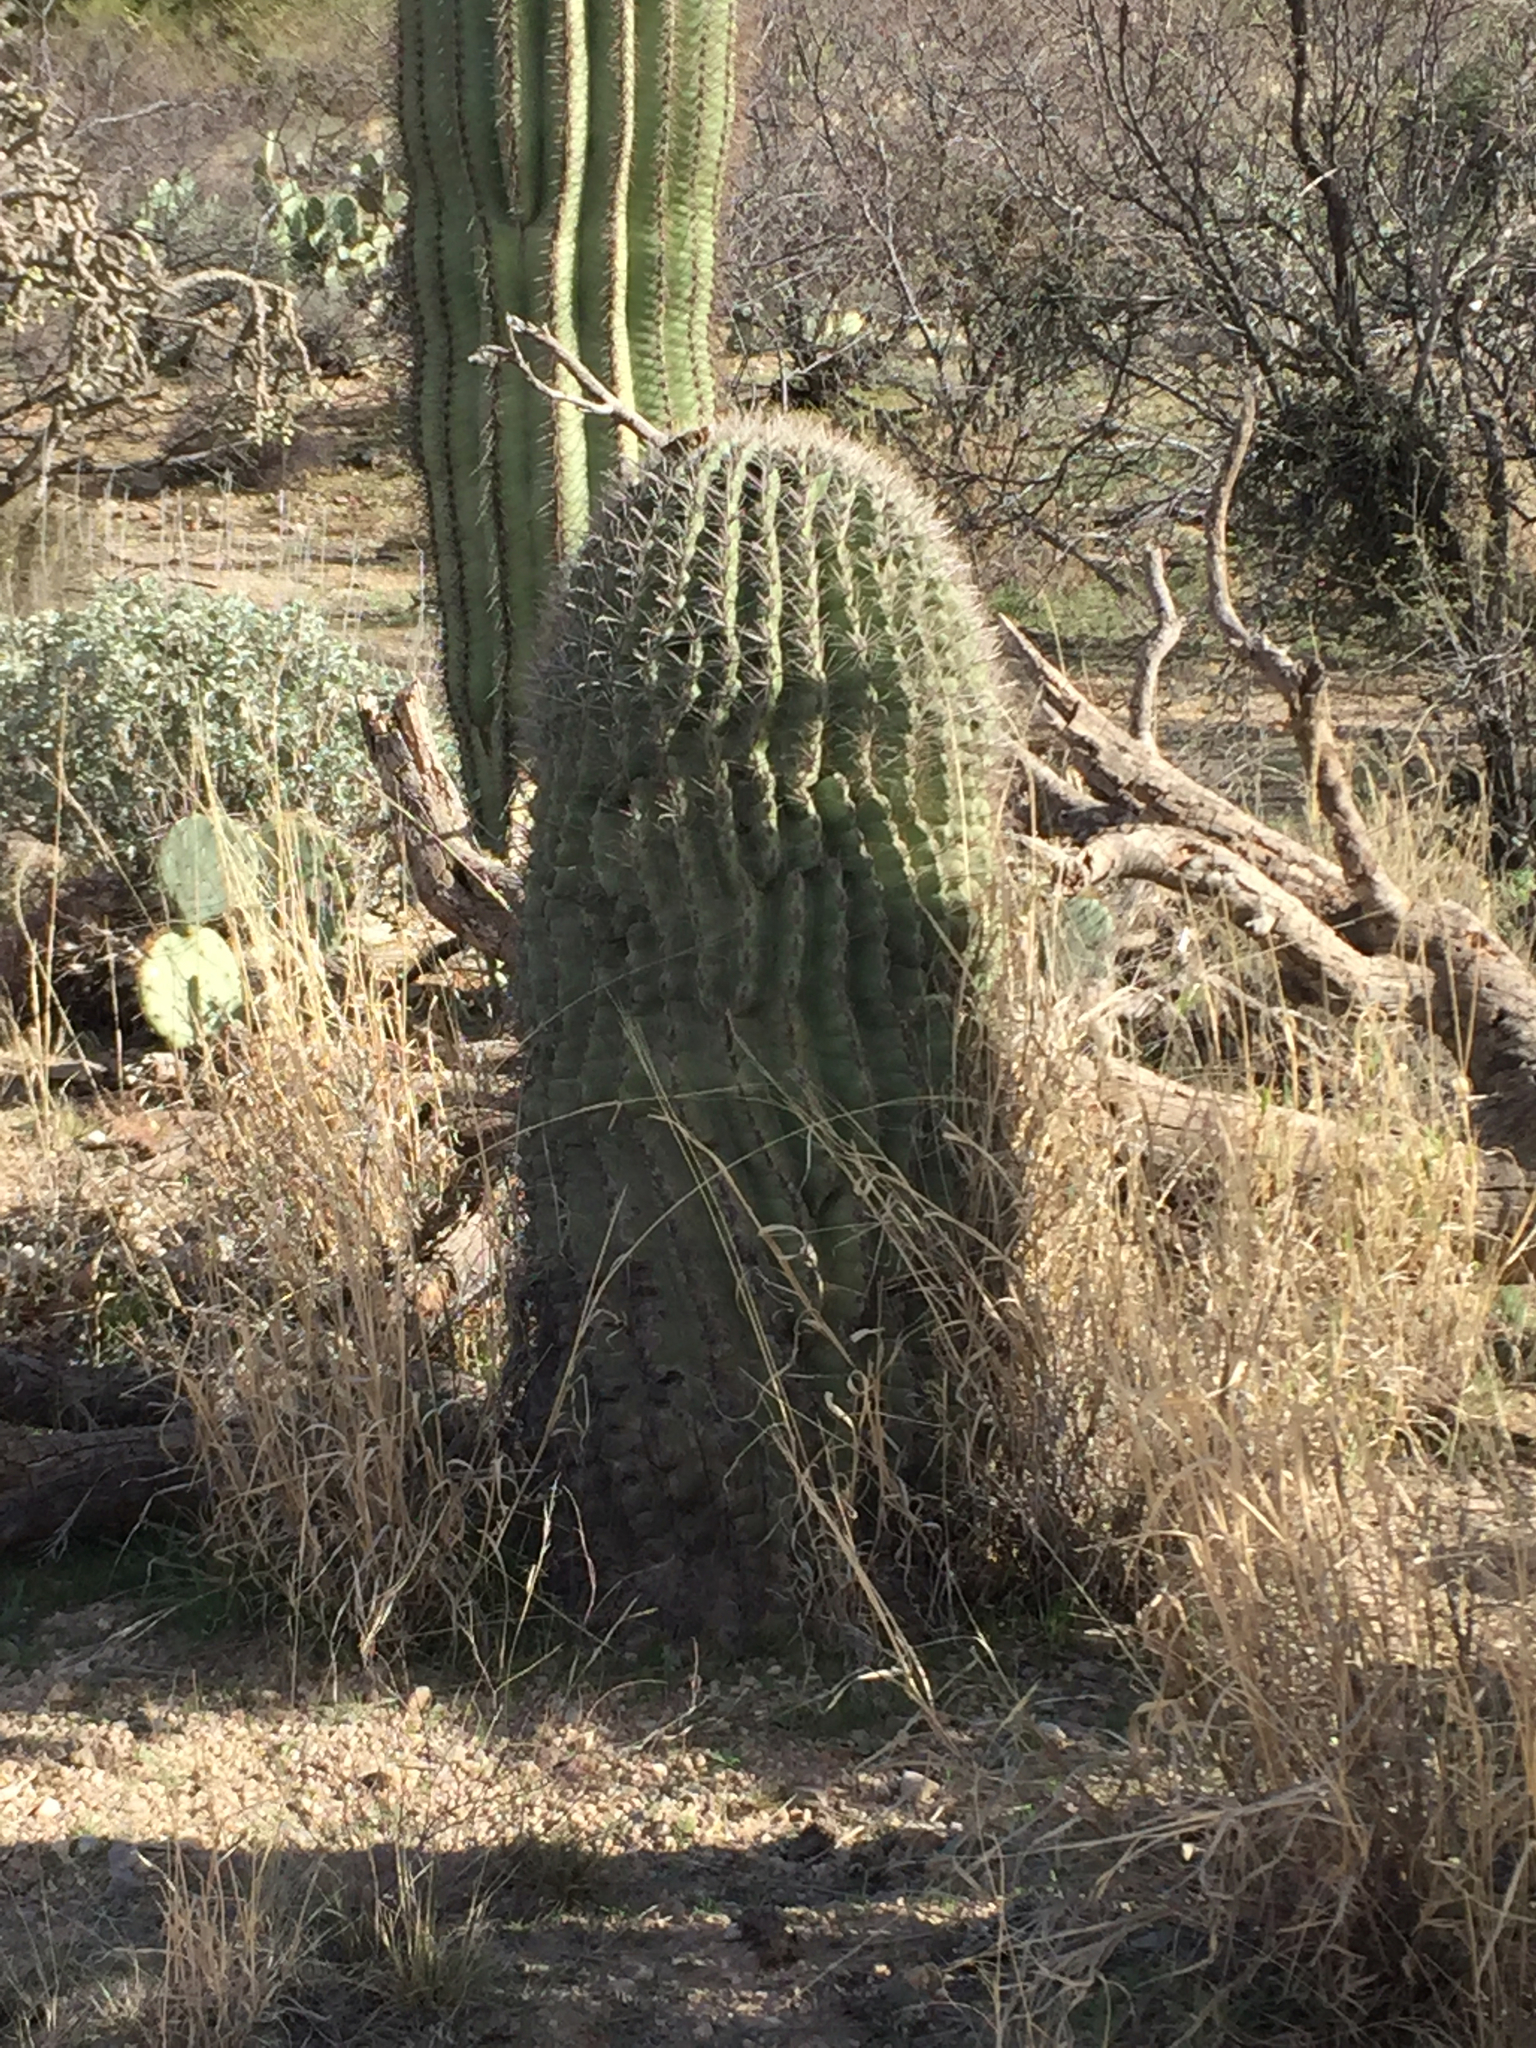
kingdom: Plantae
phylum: Tracheophyta
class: Magnoliopsida
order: Caryophyllales
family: Cactaceae
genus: Ferocactus
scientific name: Ferocactus wislizeni
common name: Candy barrel cactus
